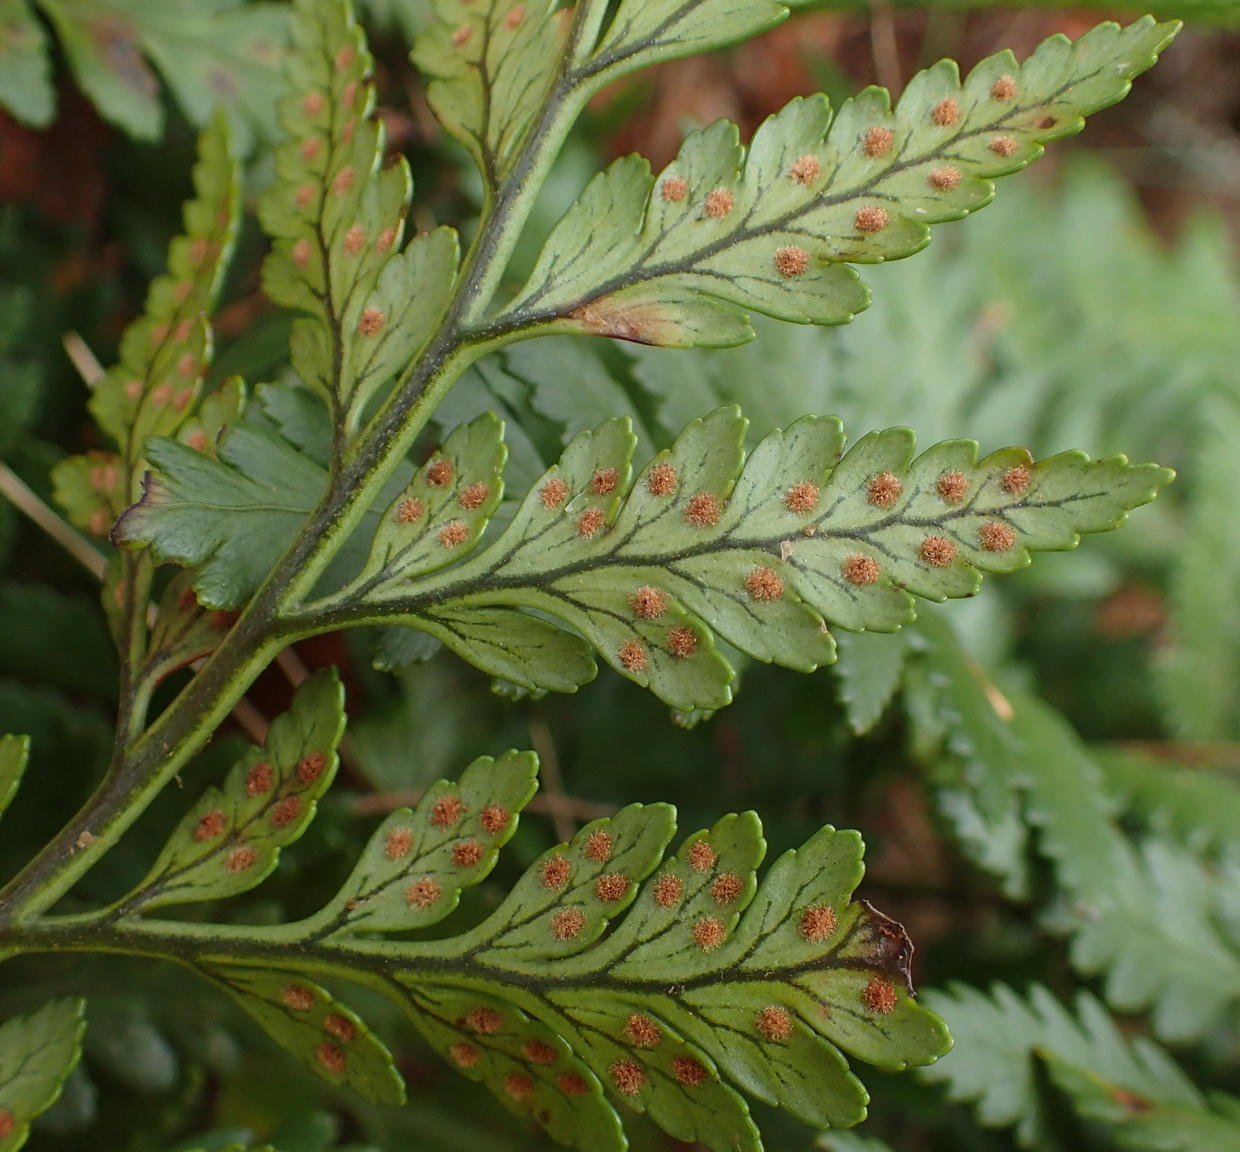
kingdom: Plantae
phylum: Tracheophyta
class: Polypodiopsida
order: Polypodiales
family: Dryopteridaceae
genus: Rumohra
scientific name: Rumohra adiantiformis
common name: Leather fern
